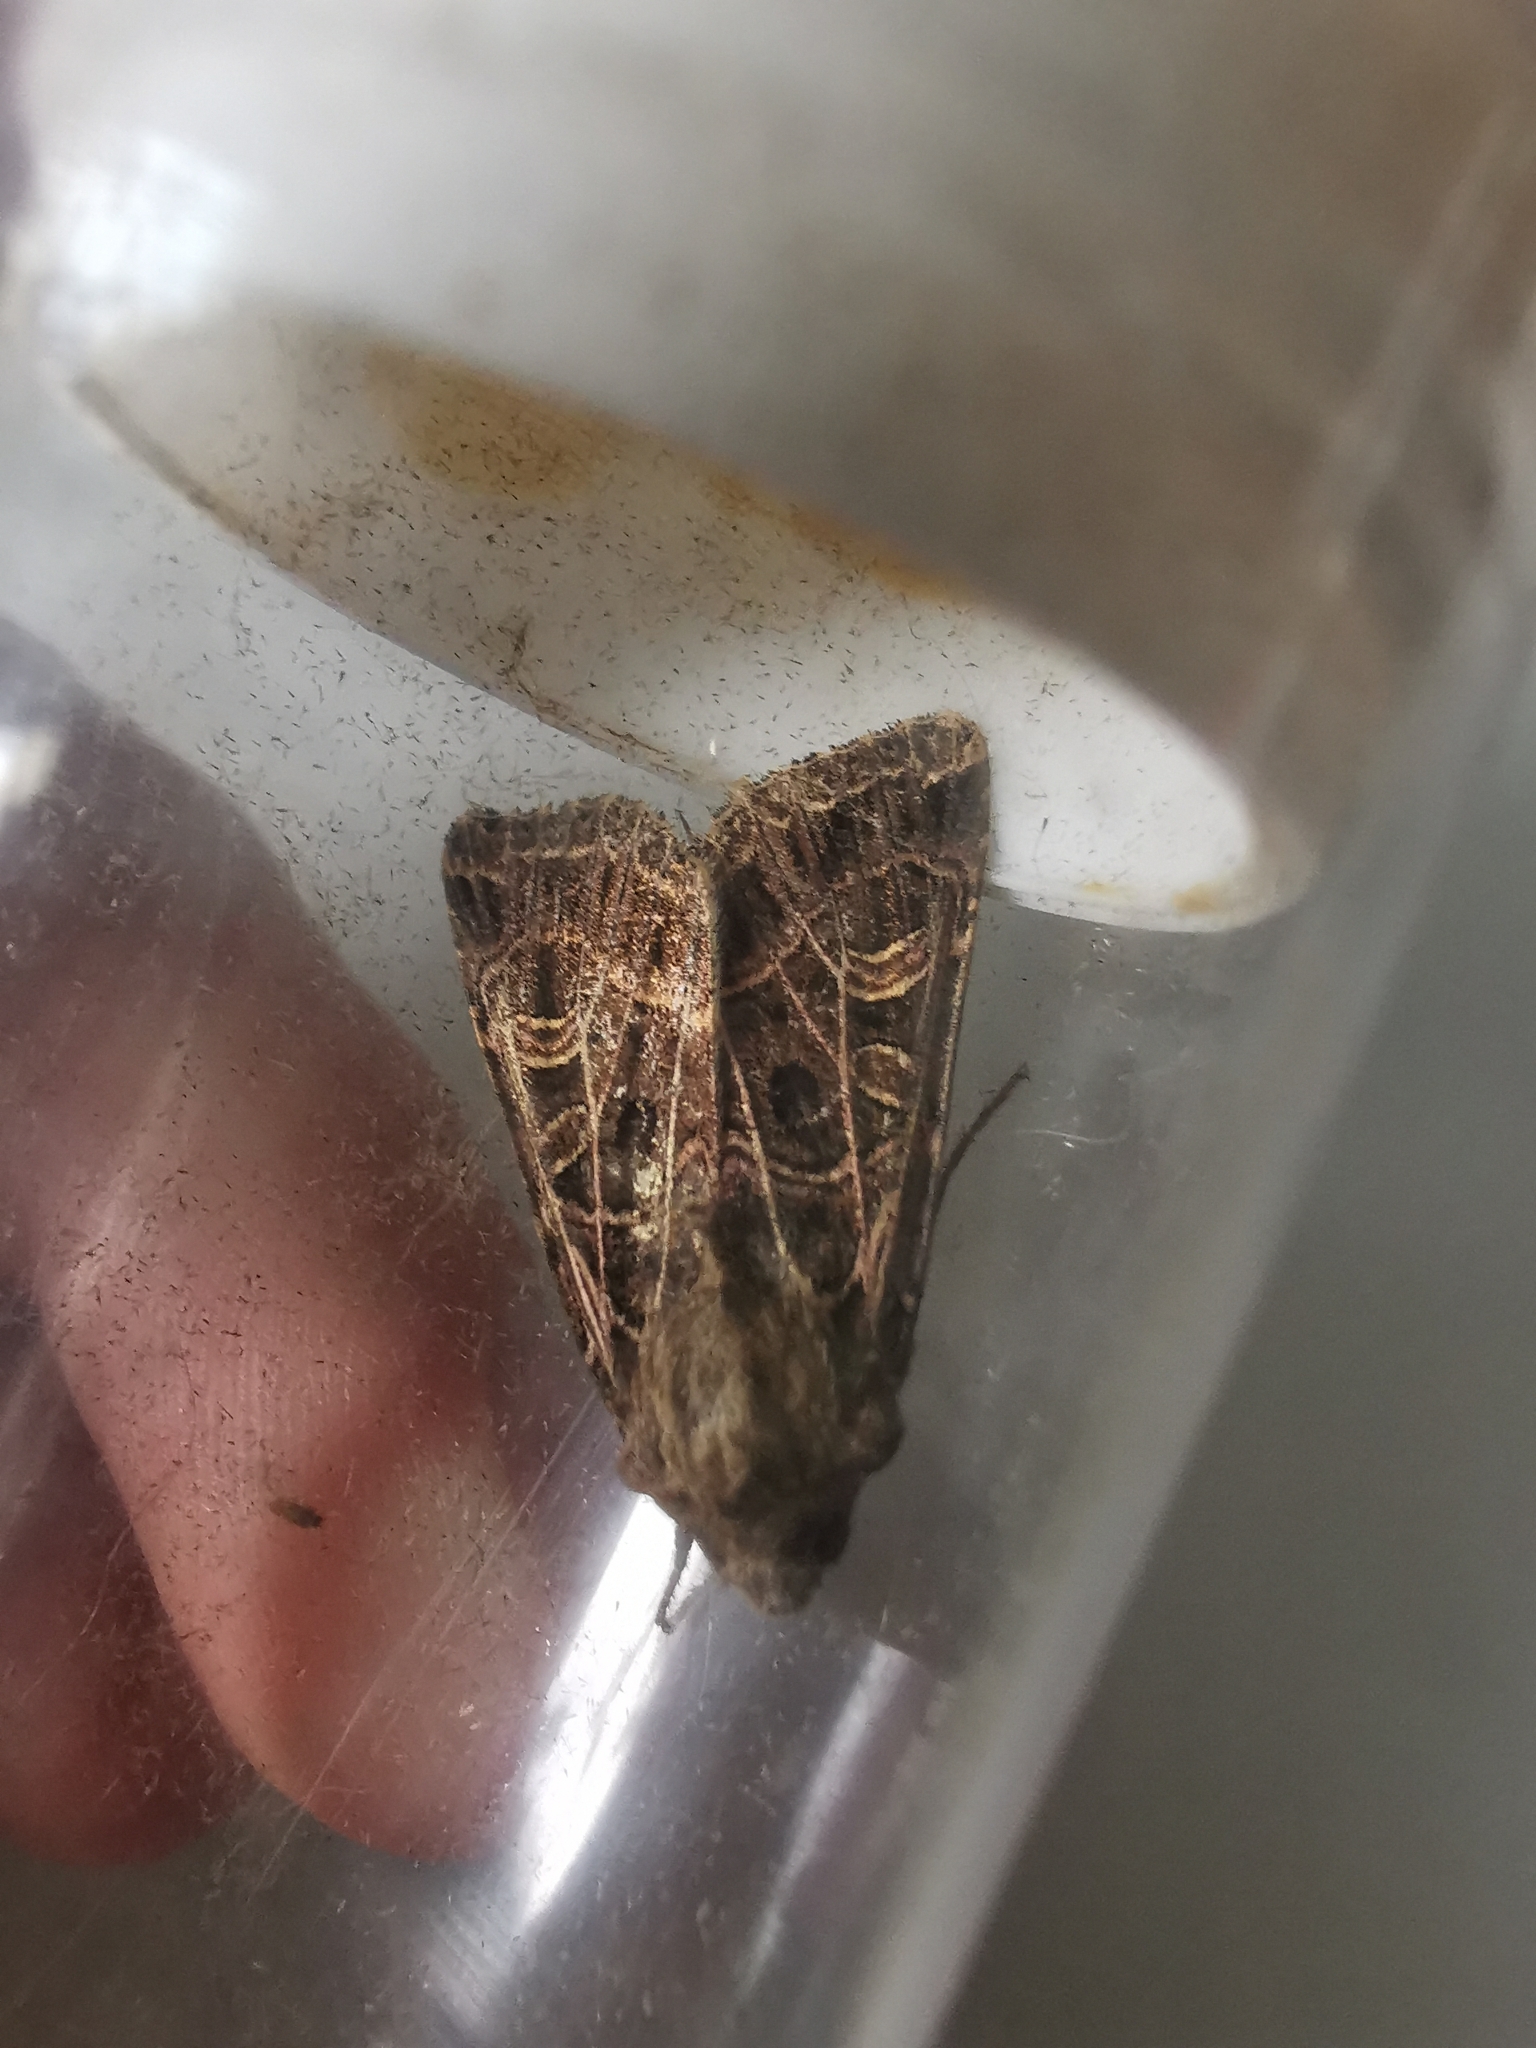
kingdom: Animalia
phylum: Arthropoda
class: Insecta
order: Lepidoptera
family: Noctuidae
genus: Sideridis
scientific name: Sideridis reticulata
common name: Bordered gothic
